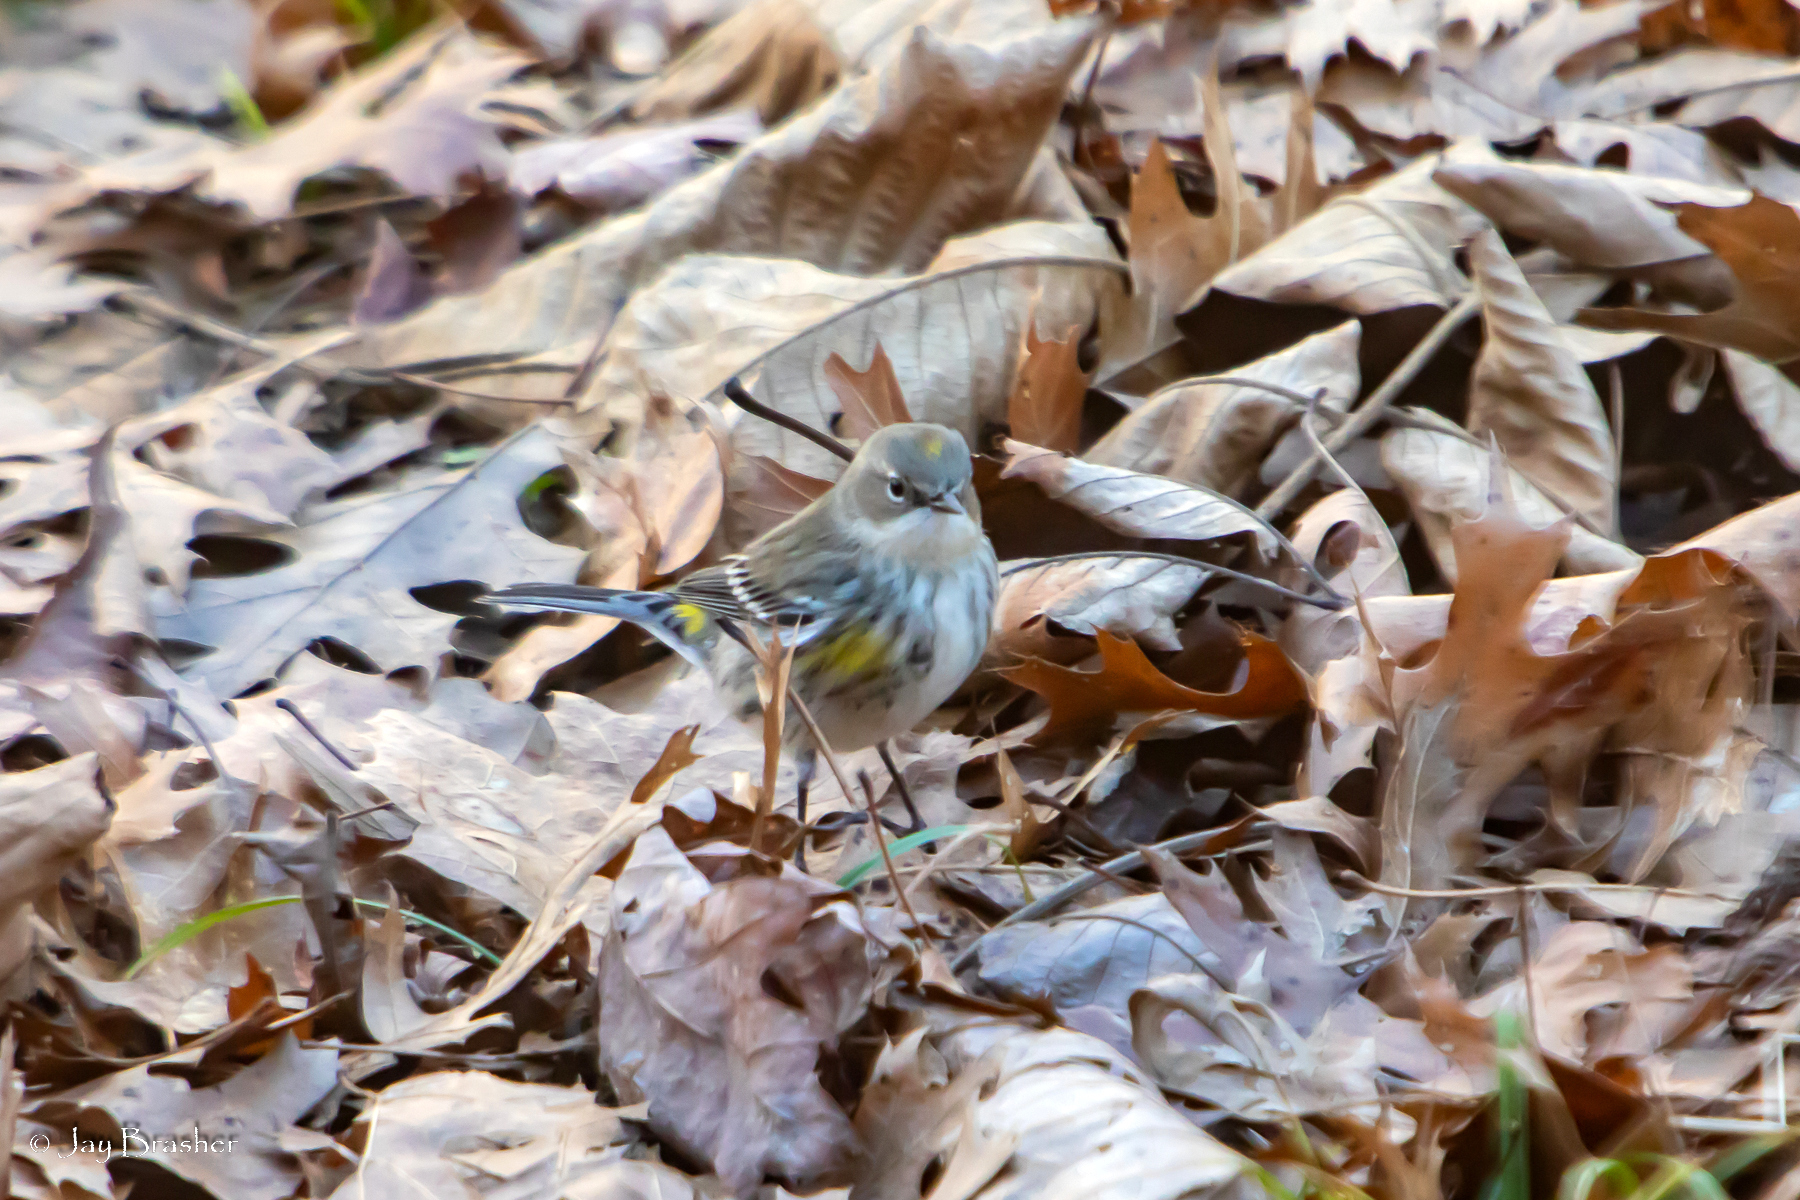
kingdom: Animalia
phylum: Chordata
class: Aves
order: Passeriformes
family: Parulidae
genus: Setophaga
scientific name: Setophaga coronata
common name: Myrtle warbler
